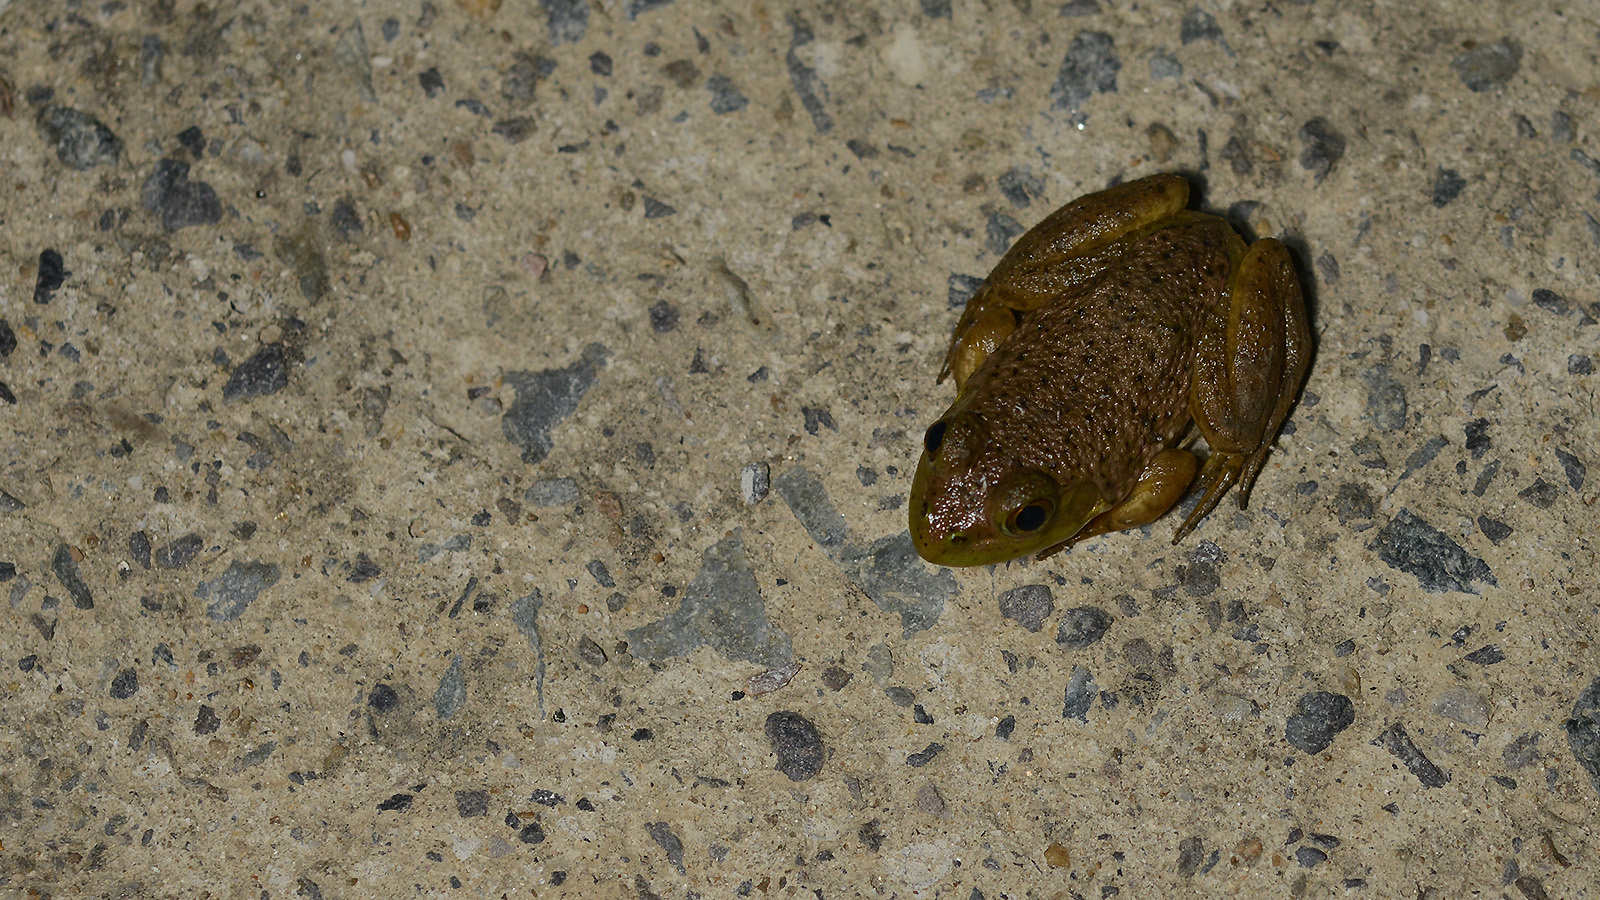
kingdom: Animalia
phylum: Chordata
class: Amphibia
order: Anura
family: Ranidae
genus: Lithobates
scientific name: Lithobates catesbeianus
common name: American bullfrog
